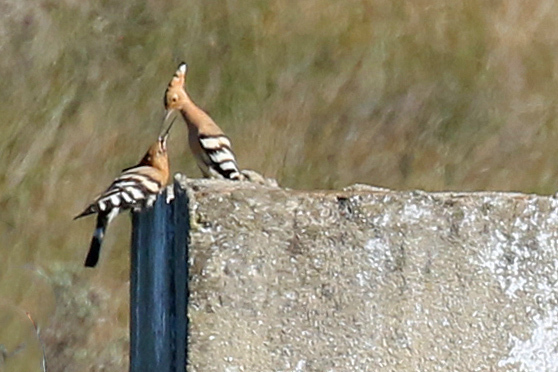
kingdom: Animalia
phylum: Chordata
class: Aves
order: Bucerotiformes
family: Upupidae
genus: Upupa
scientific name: Upupa epops
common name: Eurasian hoopoe
